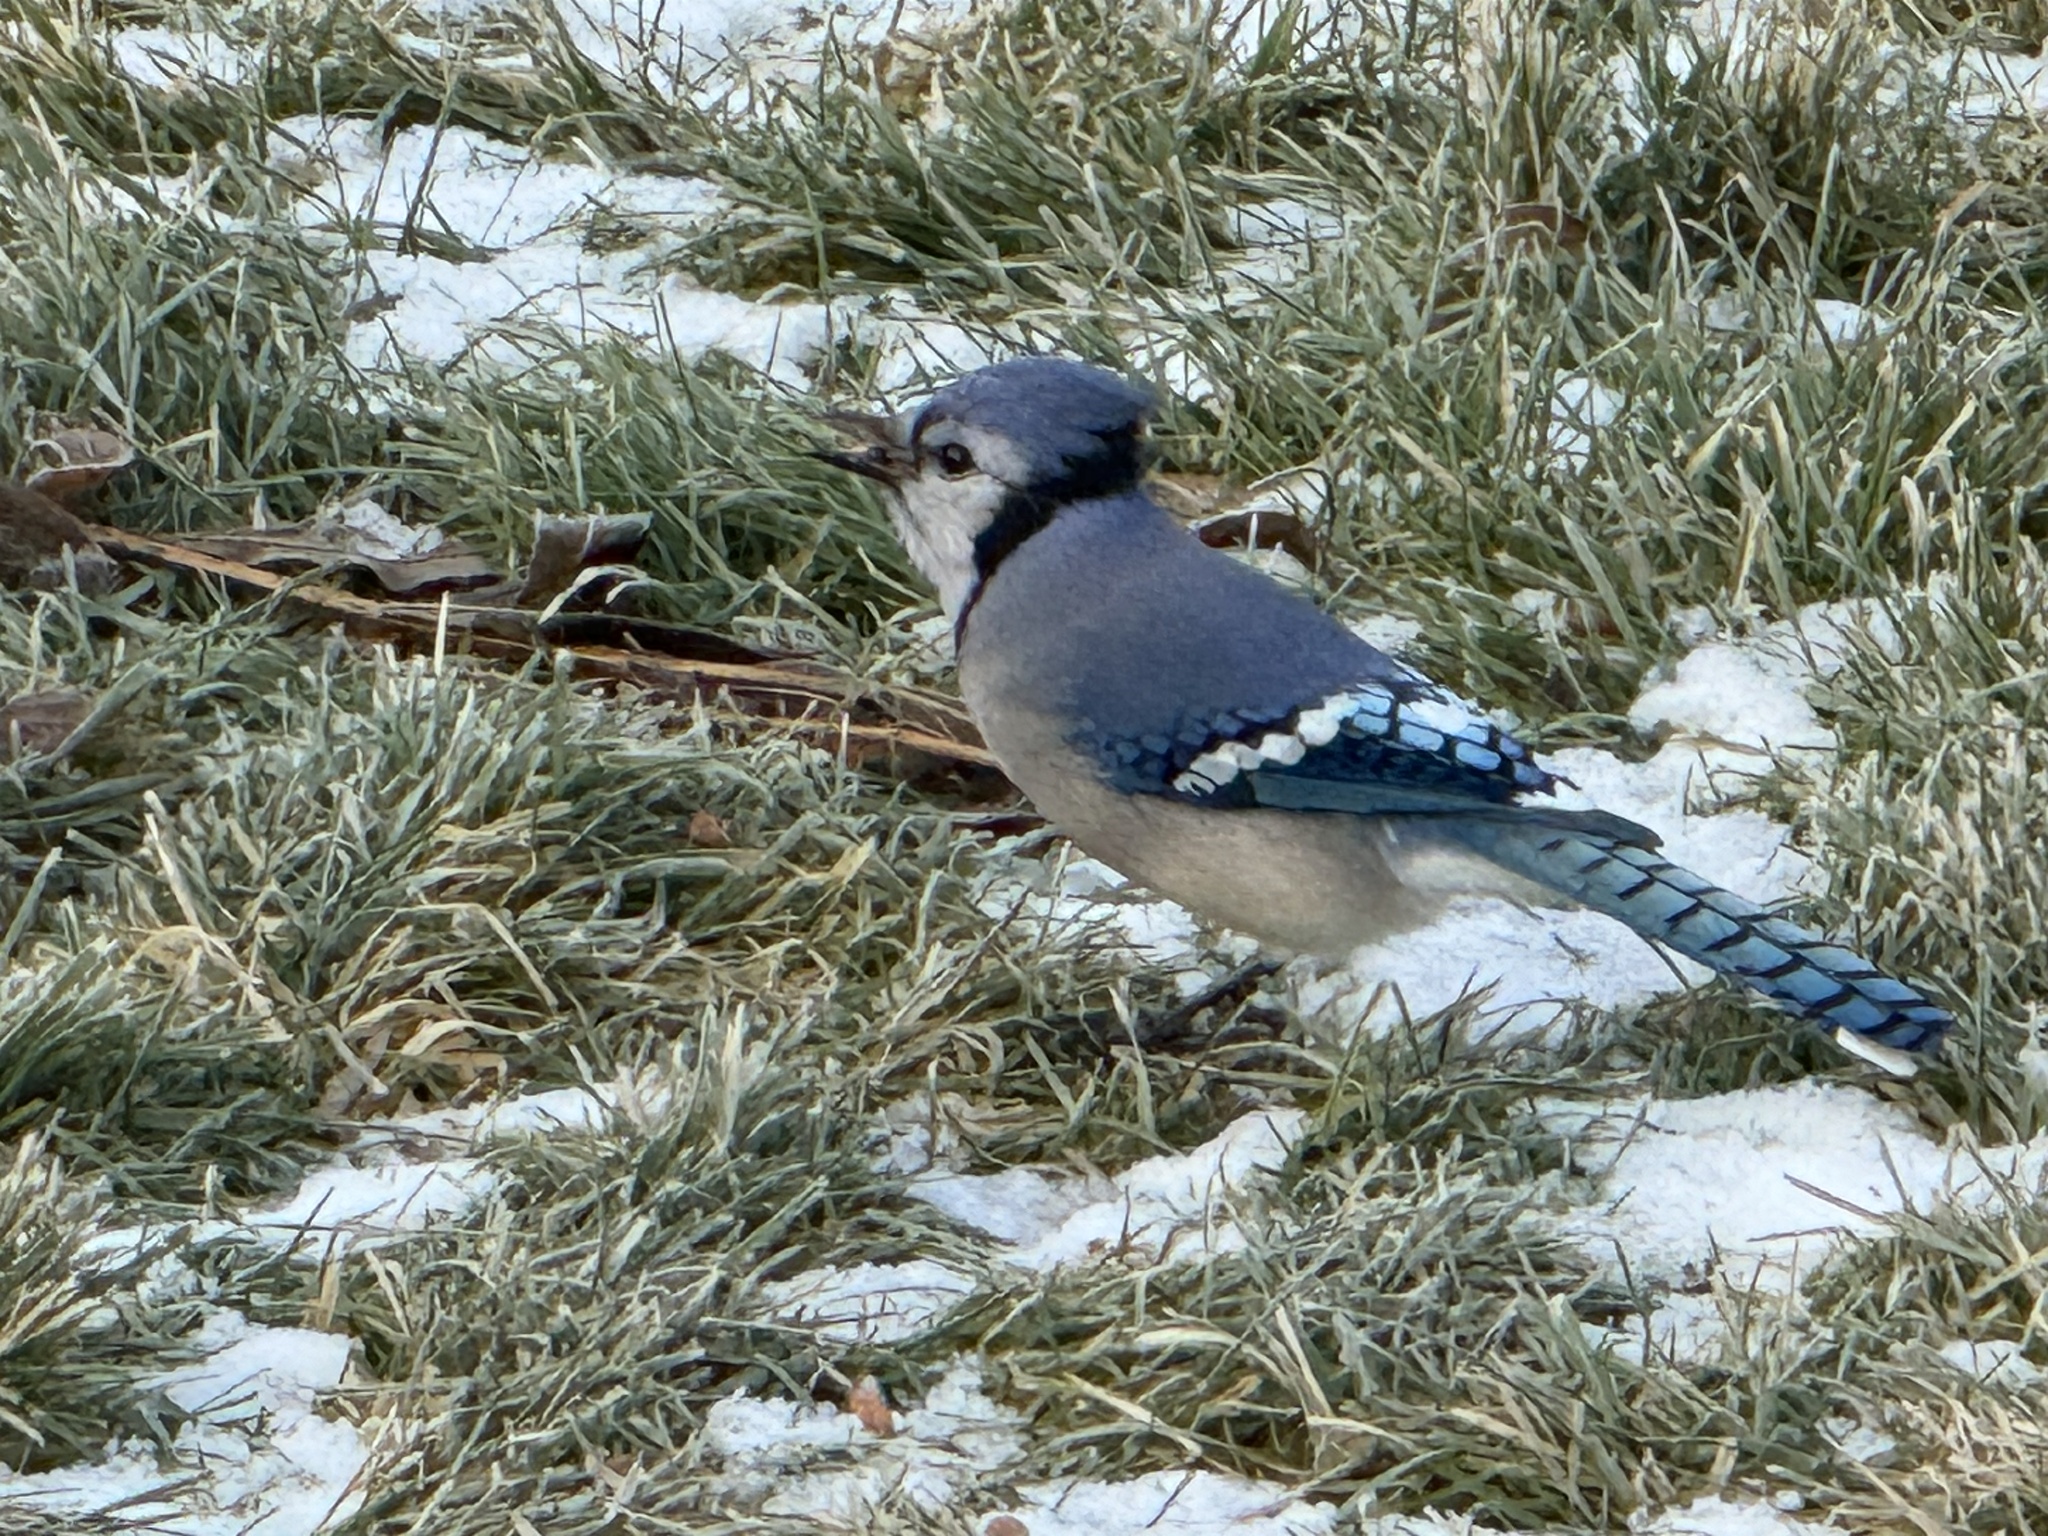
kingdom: Animalia
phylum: Chordata
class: Aves
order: Passeriformes
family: Corvidae
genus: Cyanocitta
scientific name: Cyanocitta cristata
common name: Blue jay
